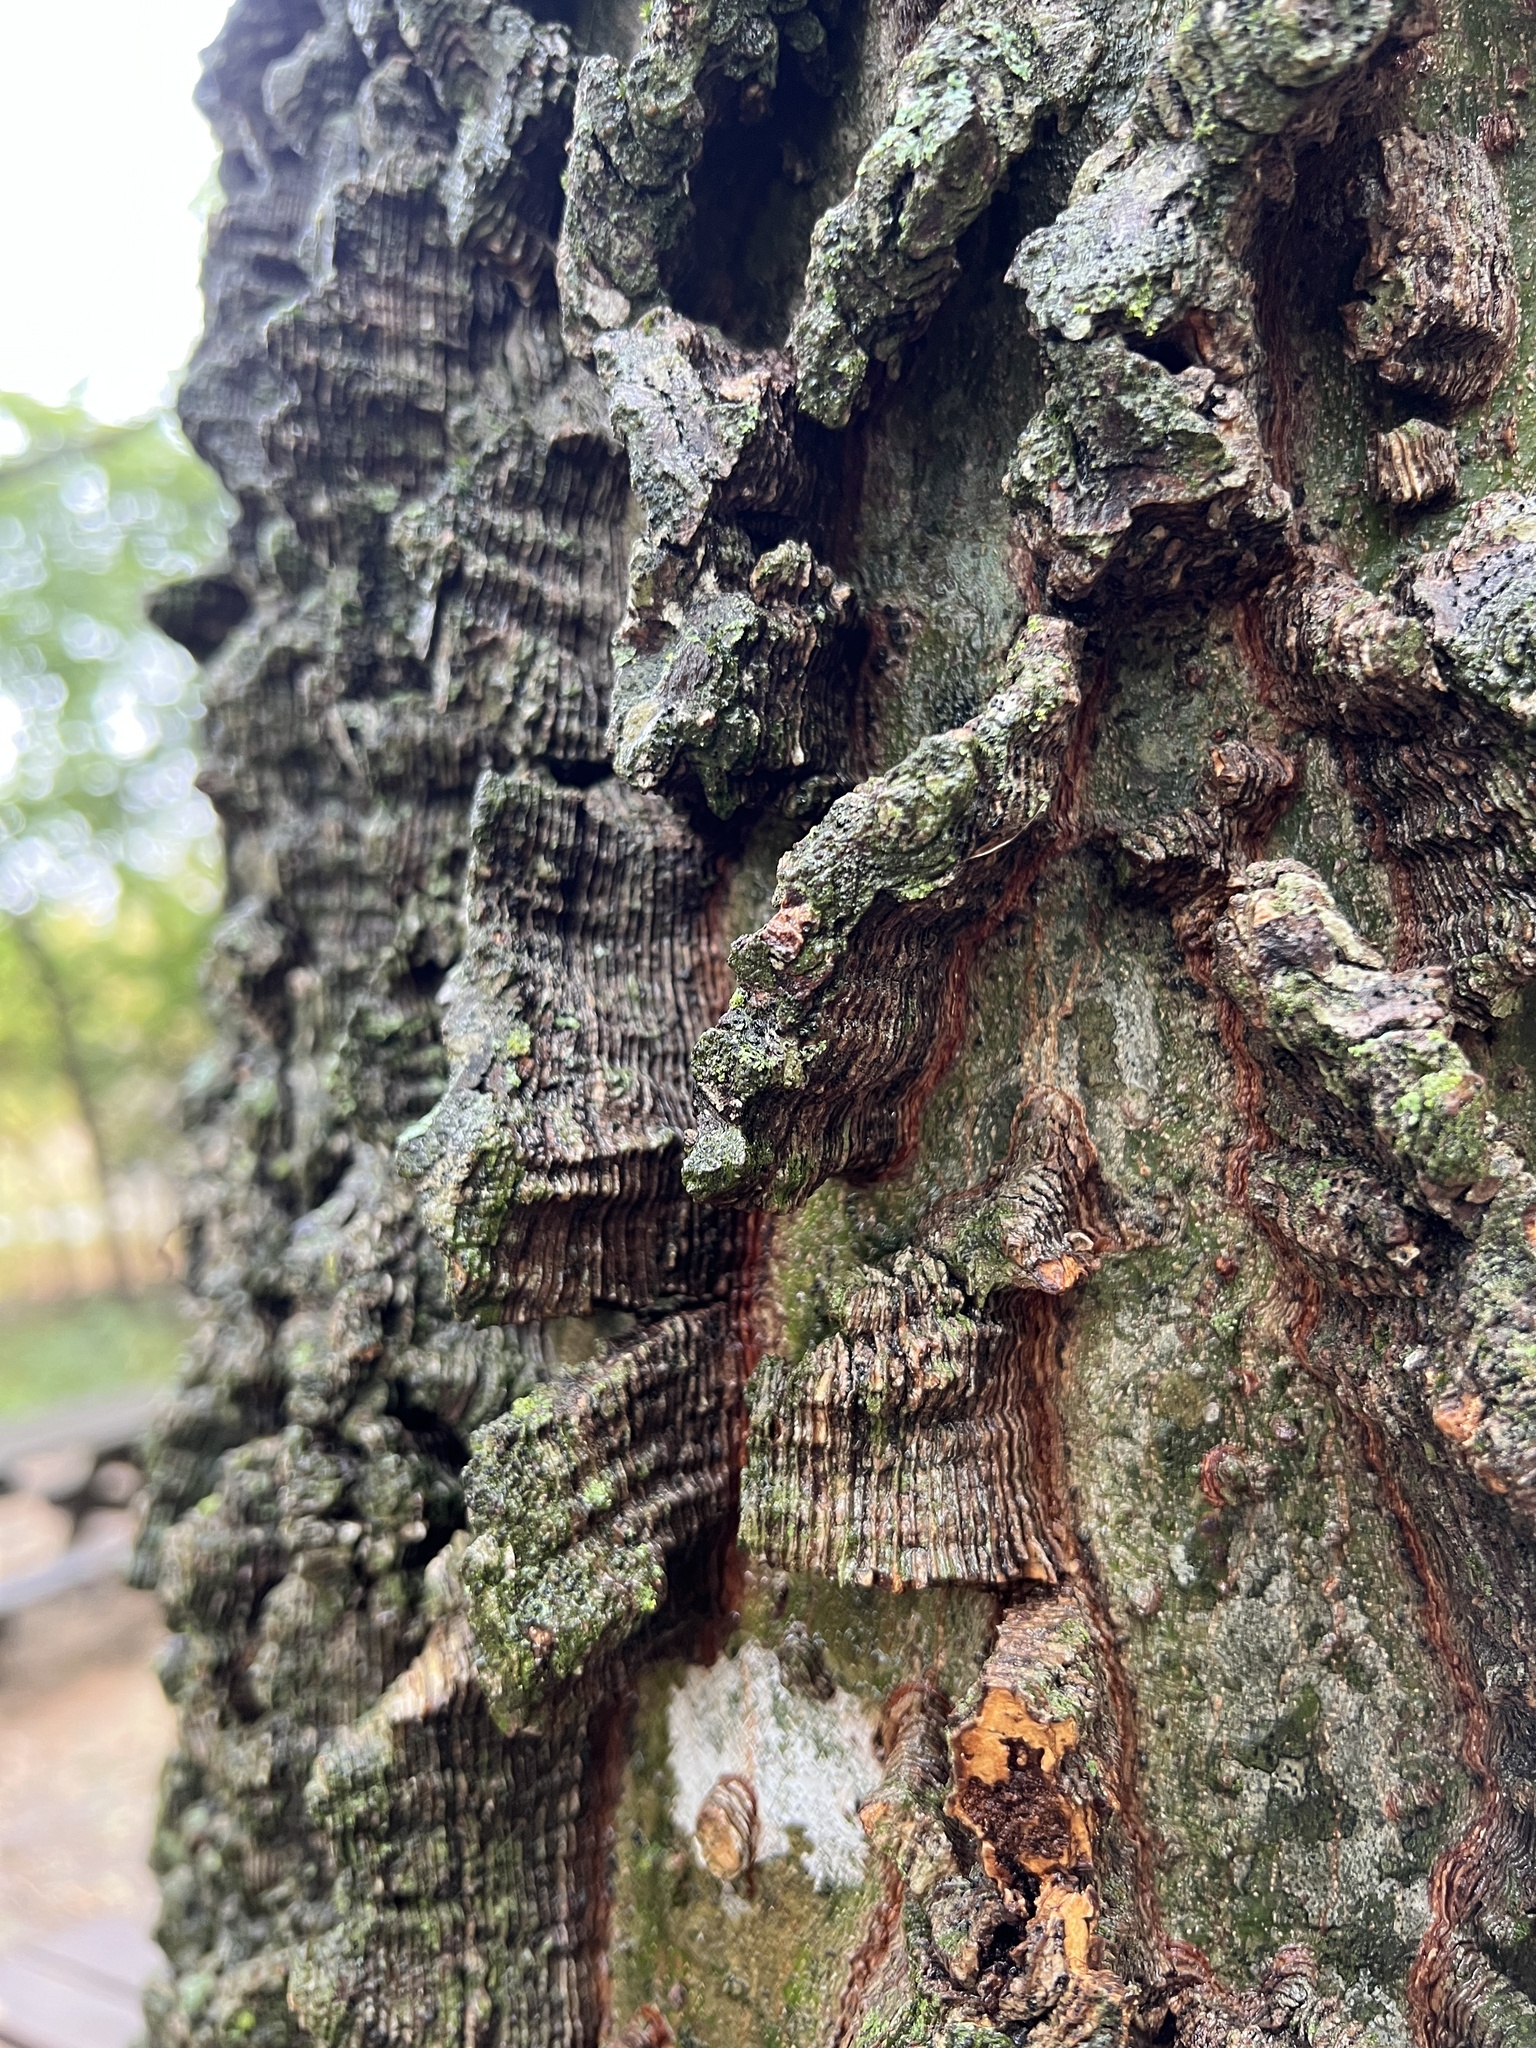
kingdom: Plantae
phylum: Tracheophyta
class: Magnoliopsida
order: Rosales
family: Cannabaceae
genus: Celtis
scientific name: Celtis laevigata
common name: Sugarberry
